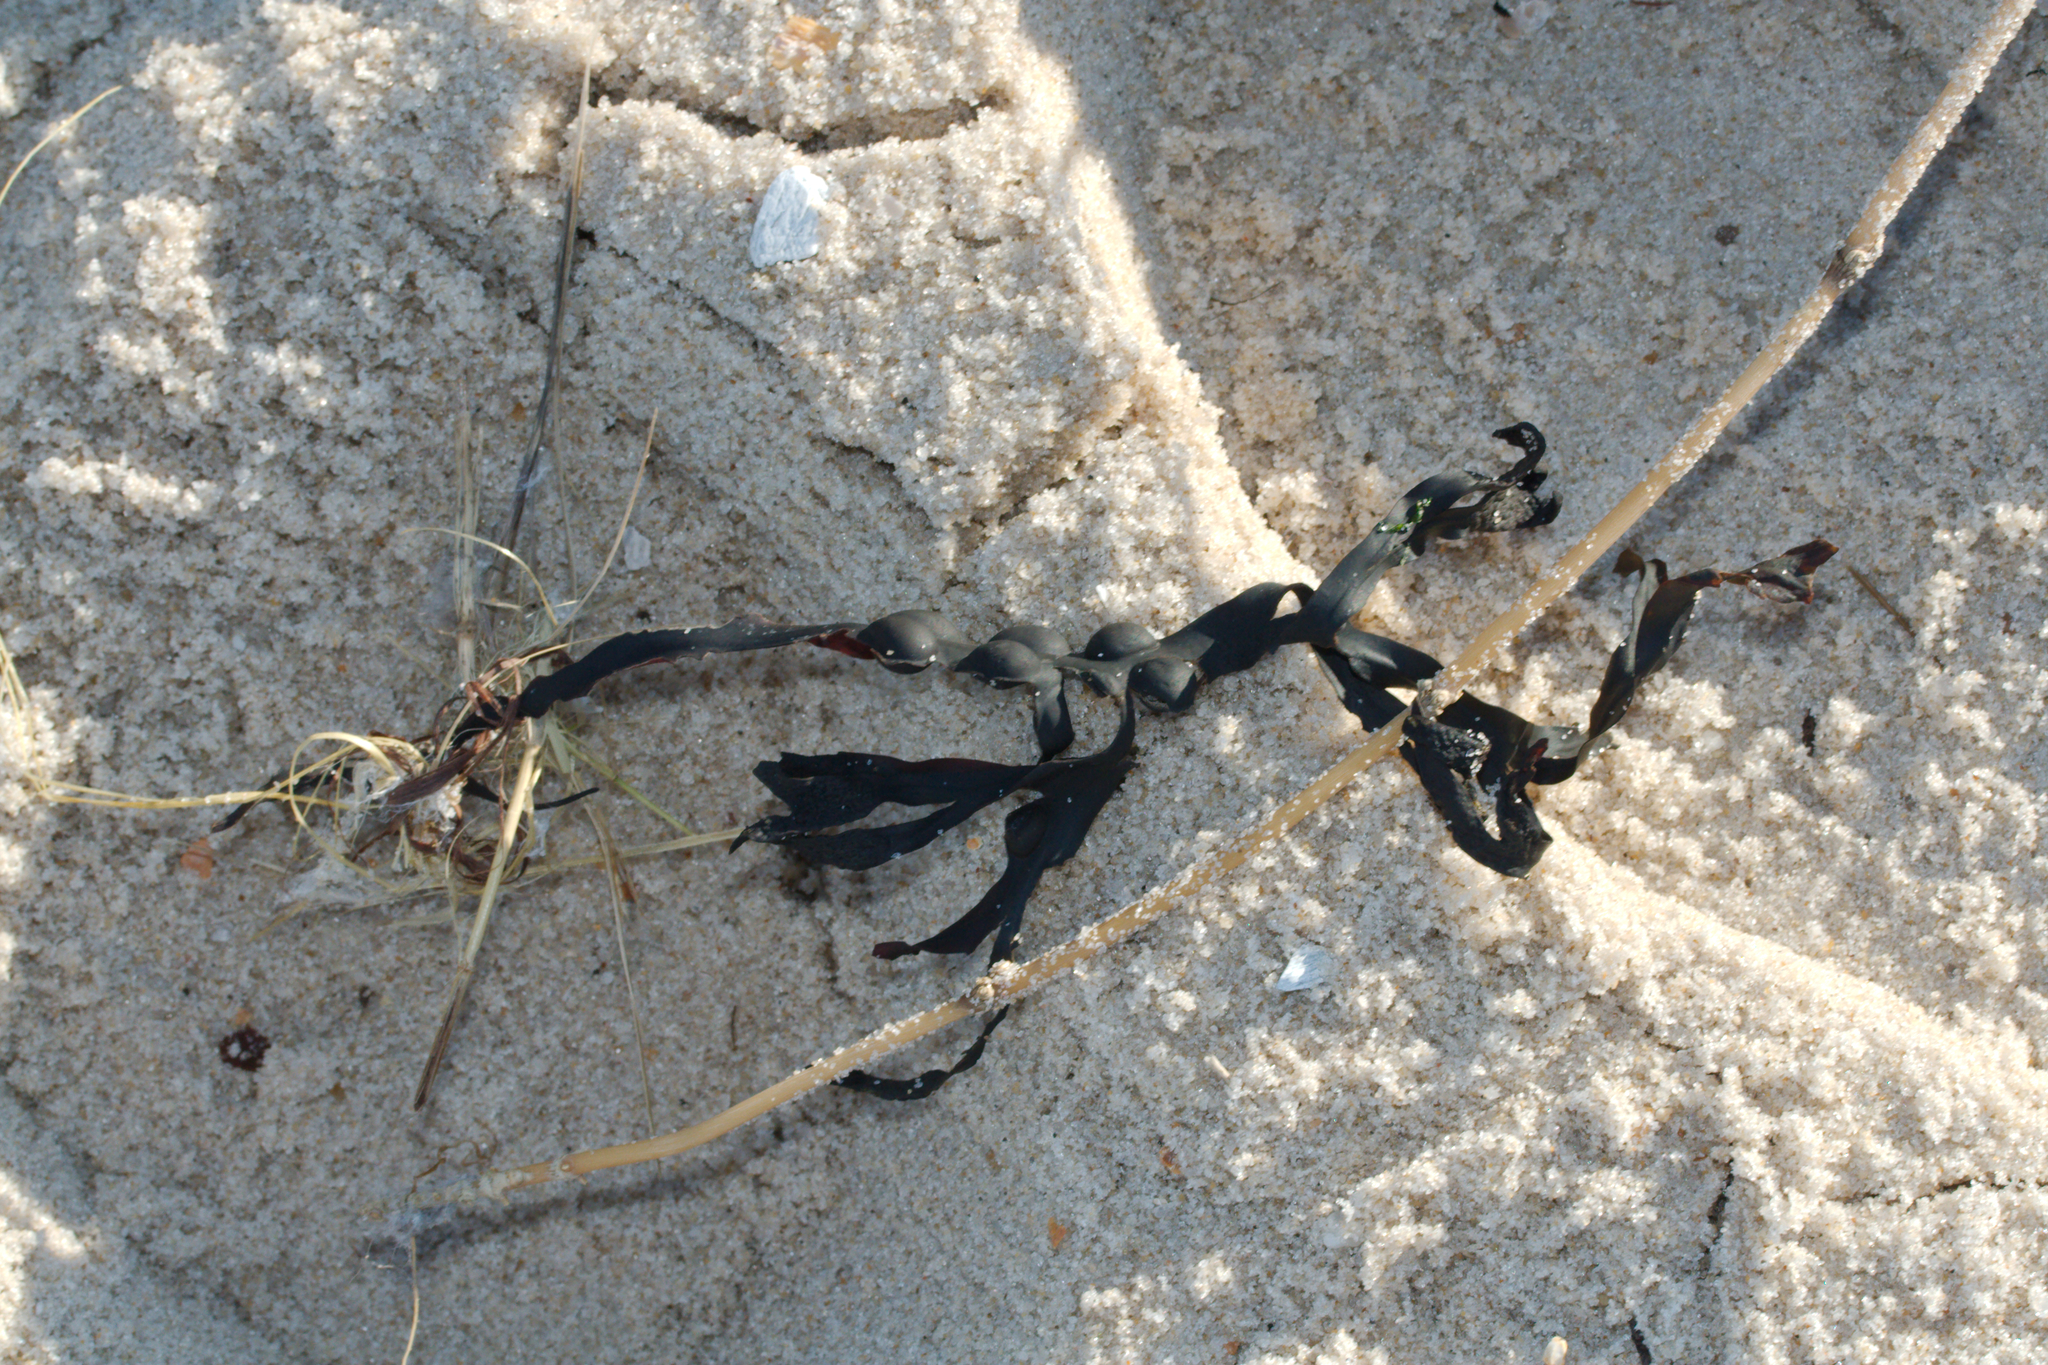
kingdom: Chromista
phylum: Ochrophyta
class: Phaeophyceae
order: Fucales
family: Fucaceae
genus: Fucus
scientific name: Fucus vesiculosus
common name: Bladder wrack
